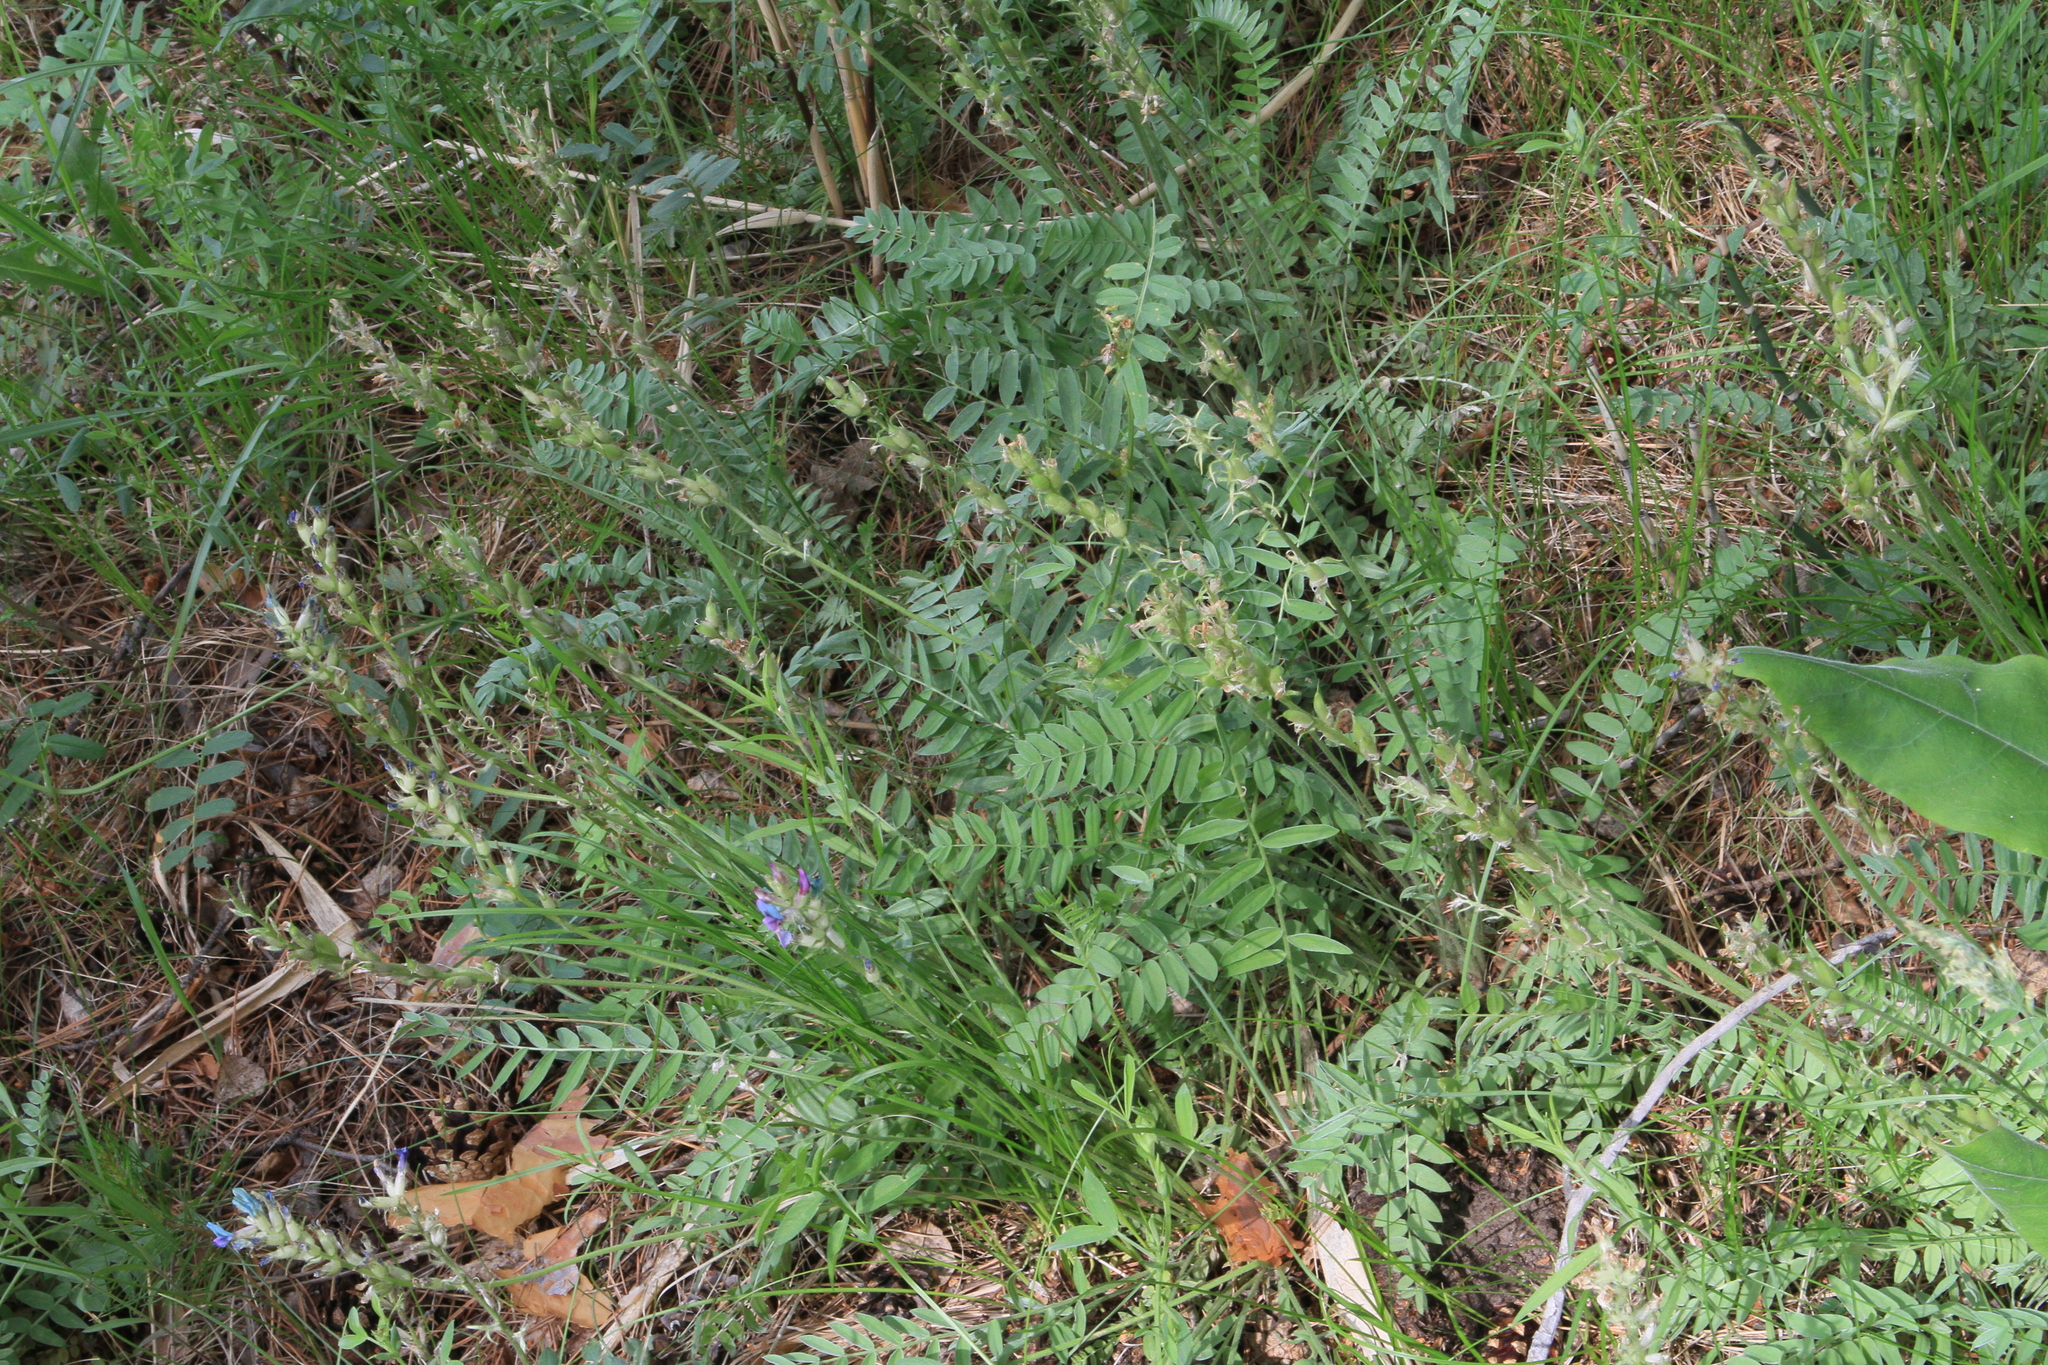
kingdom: Plantae
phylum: Tracheophyta
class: Magnoliopsida
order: Fabales
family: Fabaceae
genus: Oxytropis
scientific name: Oxytropis campanulata
